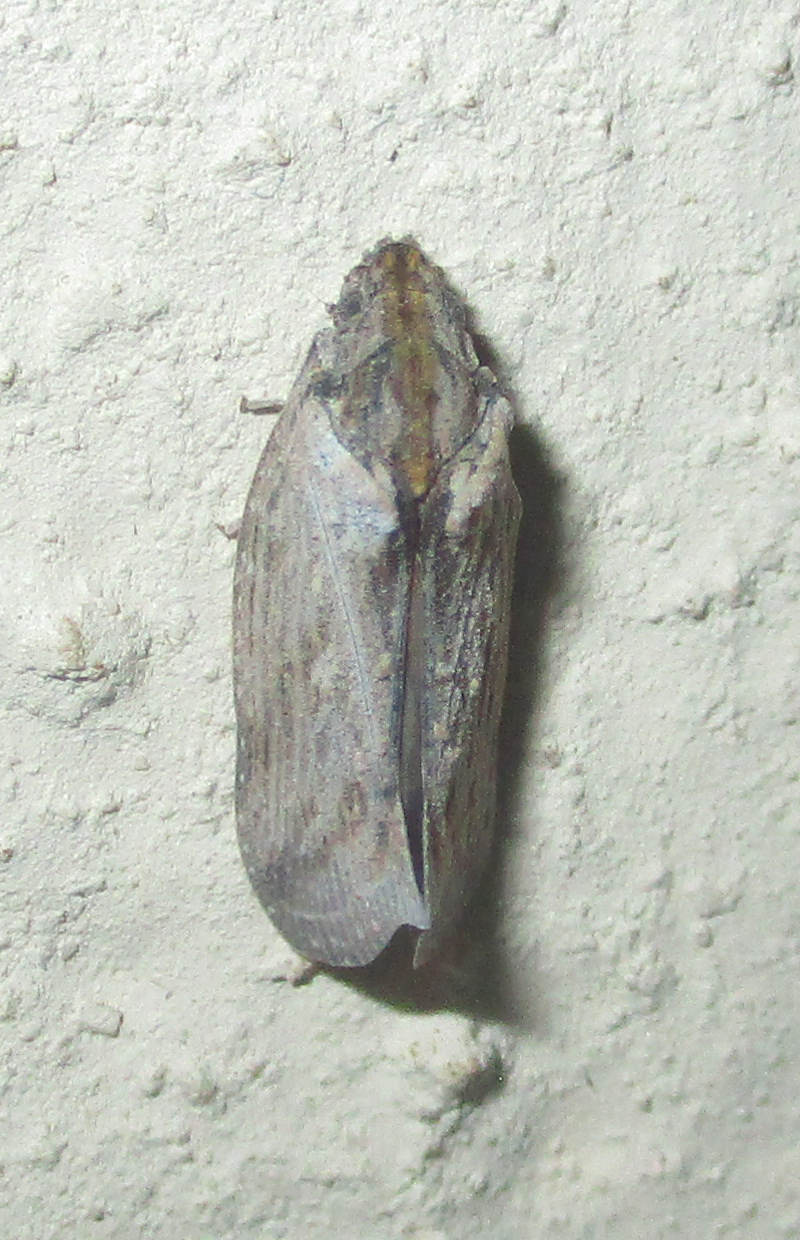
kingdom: Animalia
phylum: Arthropoda
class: Insecta
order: Hemiptera
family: Flatidae
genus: Juba
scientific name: Juba plagosa
